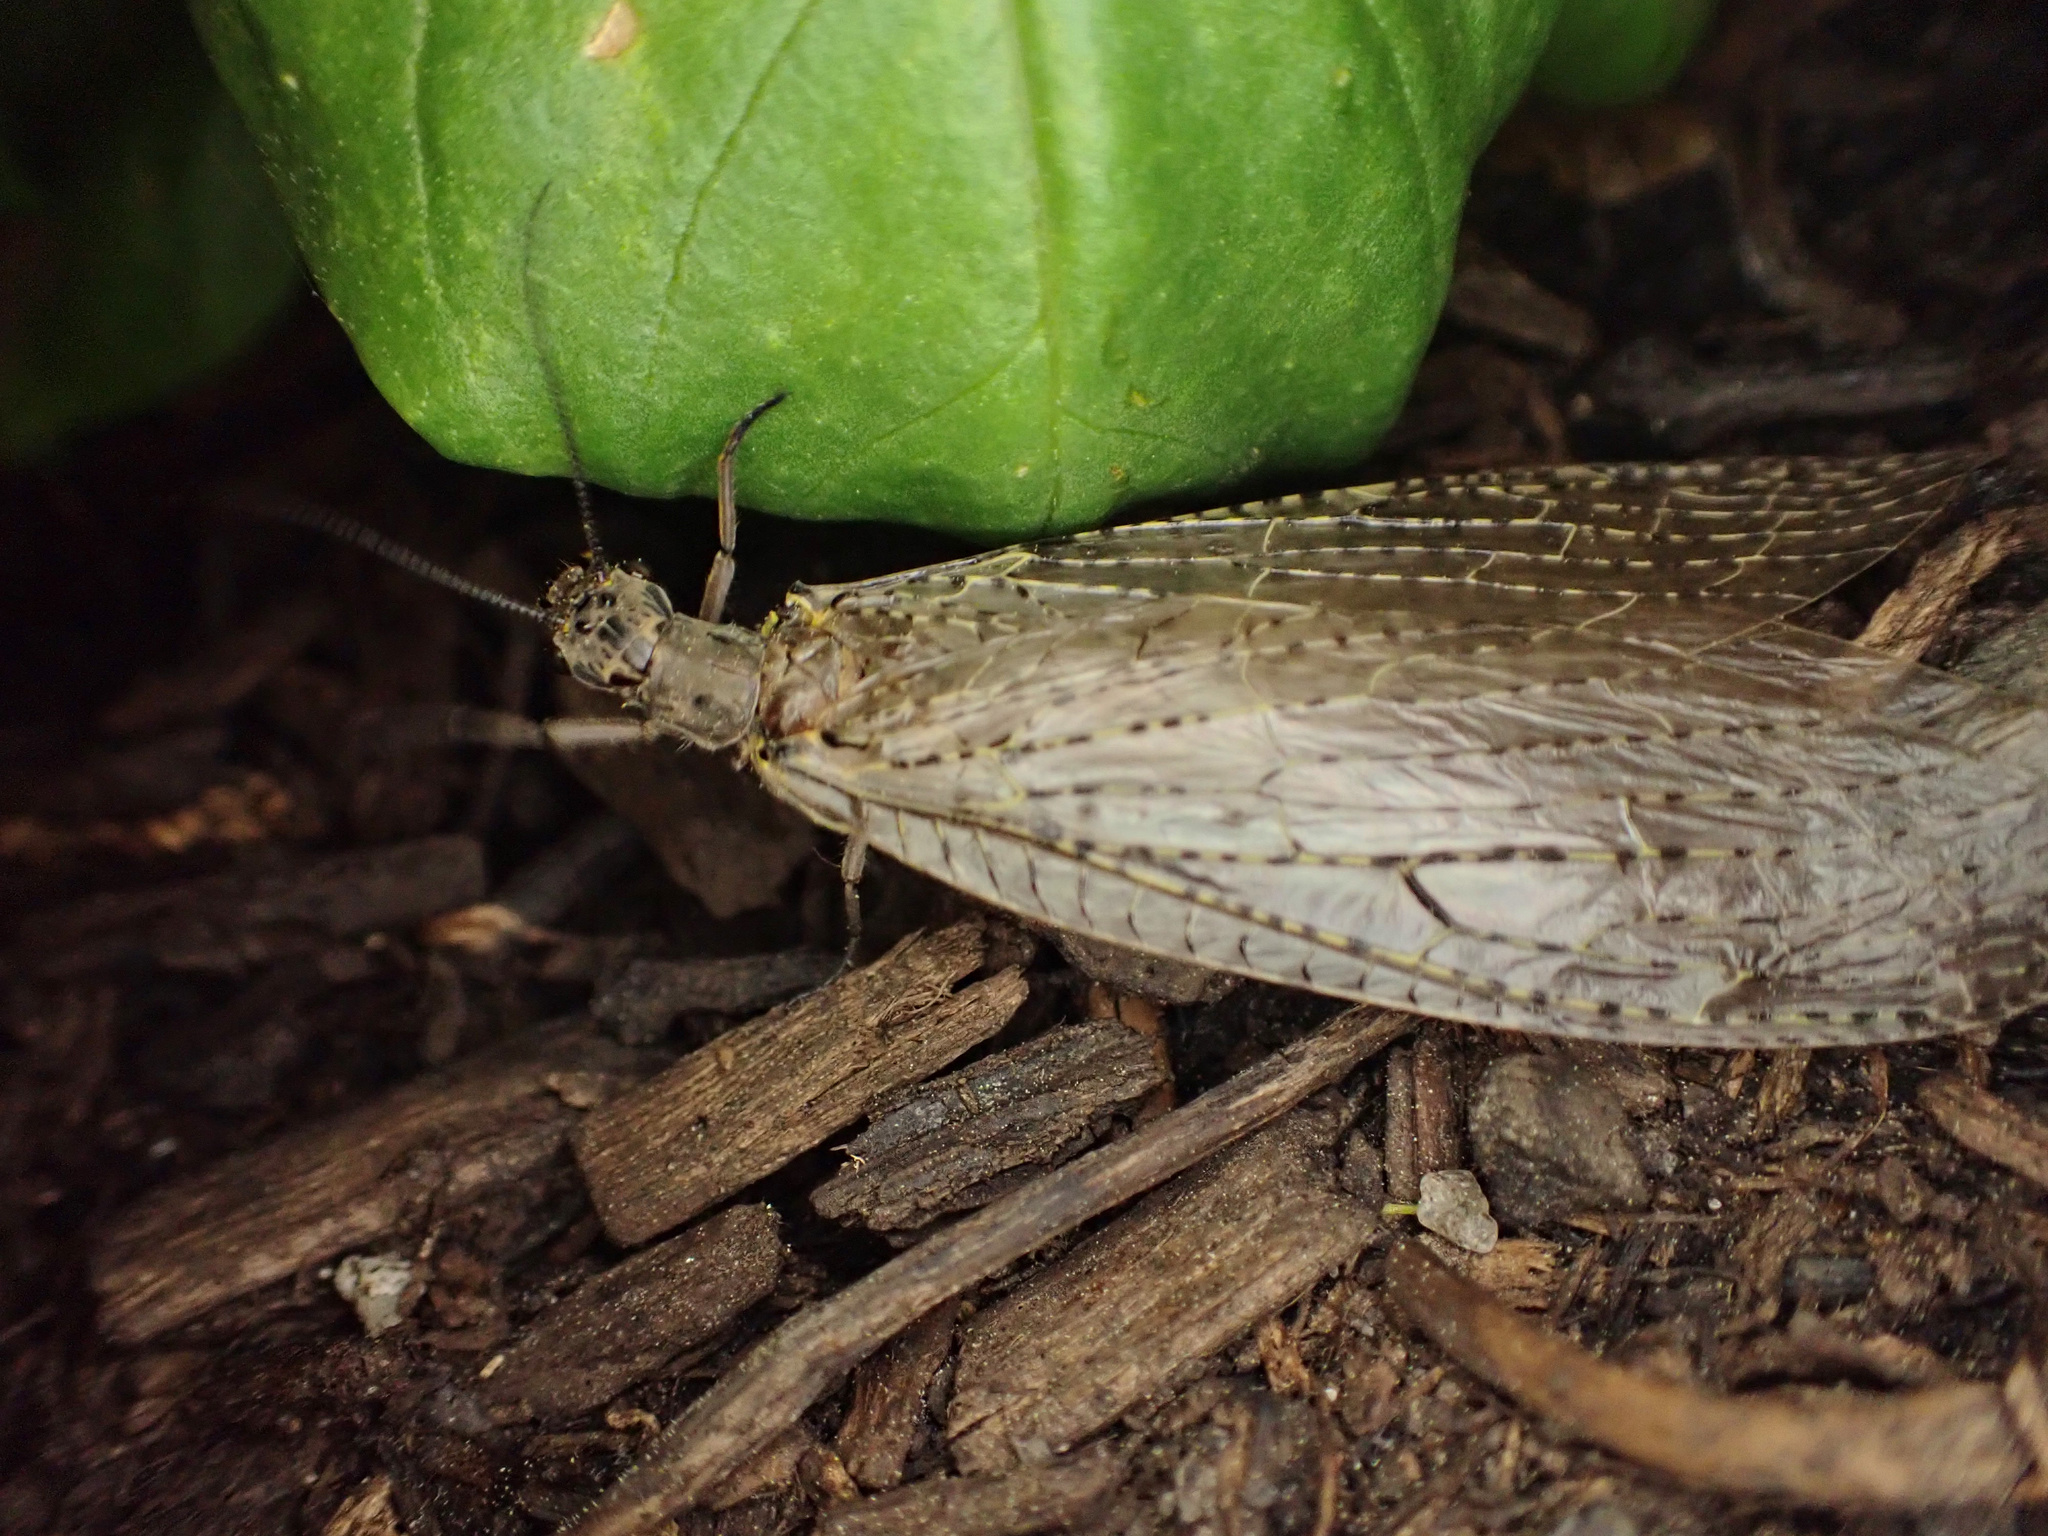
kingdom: Animalia
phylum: Arthropoda
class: Insecta
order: Megaloptera
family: Corydalidae
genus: Chauliodes
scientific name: Chauliodes rastricornis
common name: Spring fishfly
